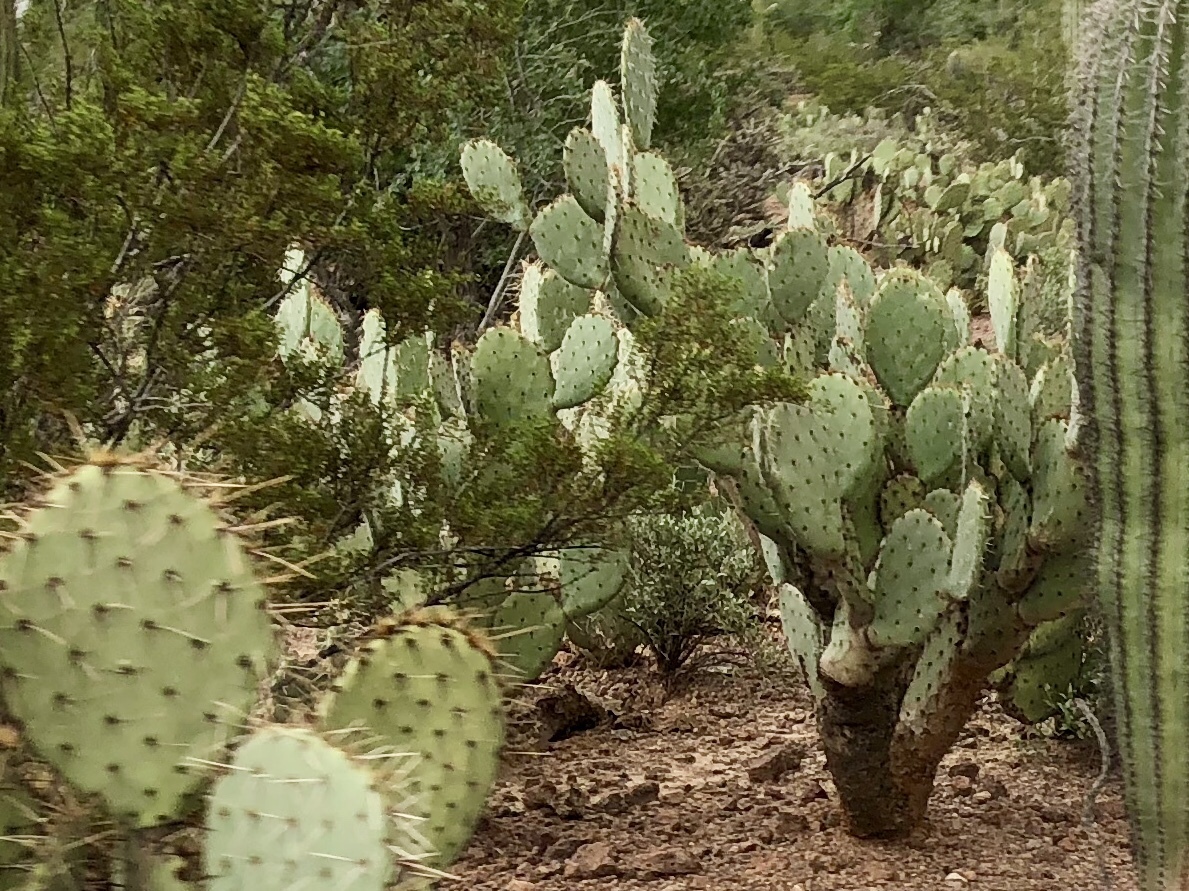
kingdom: Plantae
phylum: Tracheophyta
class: Magnoliopsida
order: Caryophyllales
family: Cactaceae
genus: Opuntia
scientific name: Opuntia engelmannii
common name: Cactus-apple
